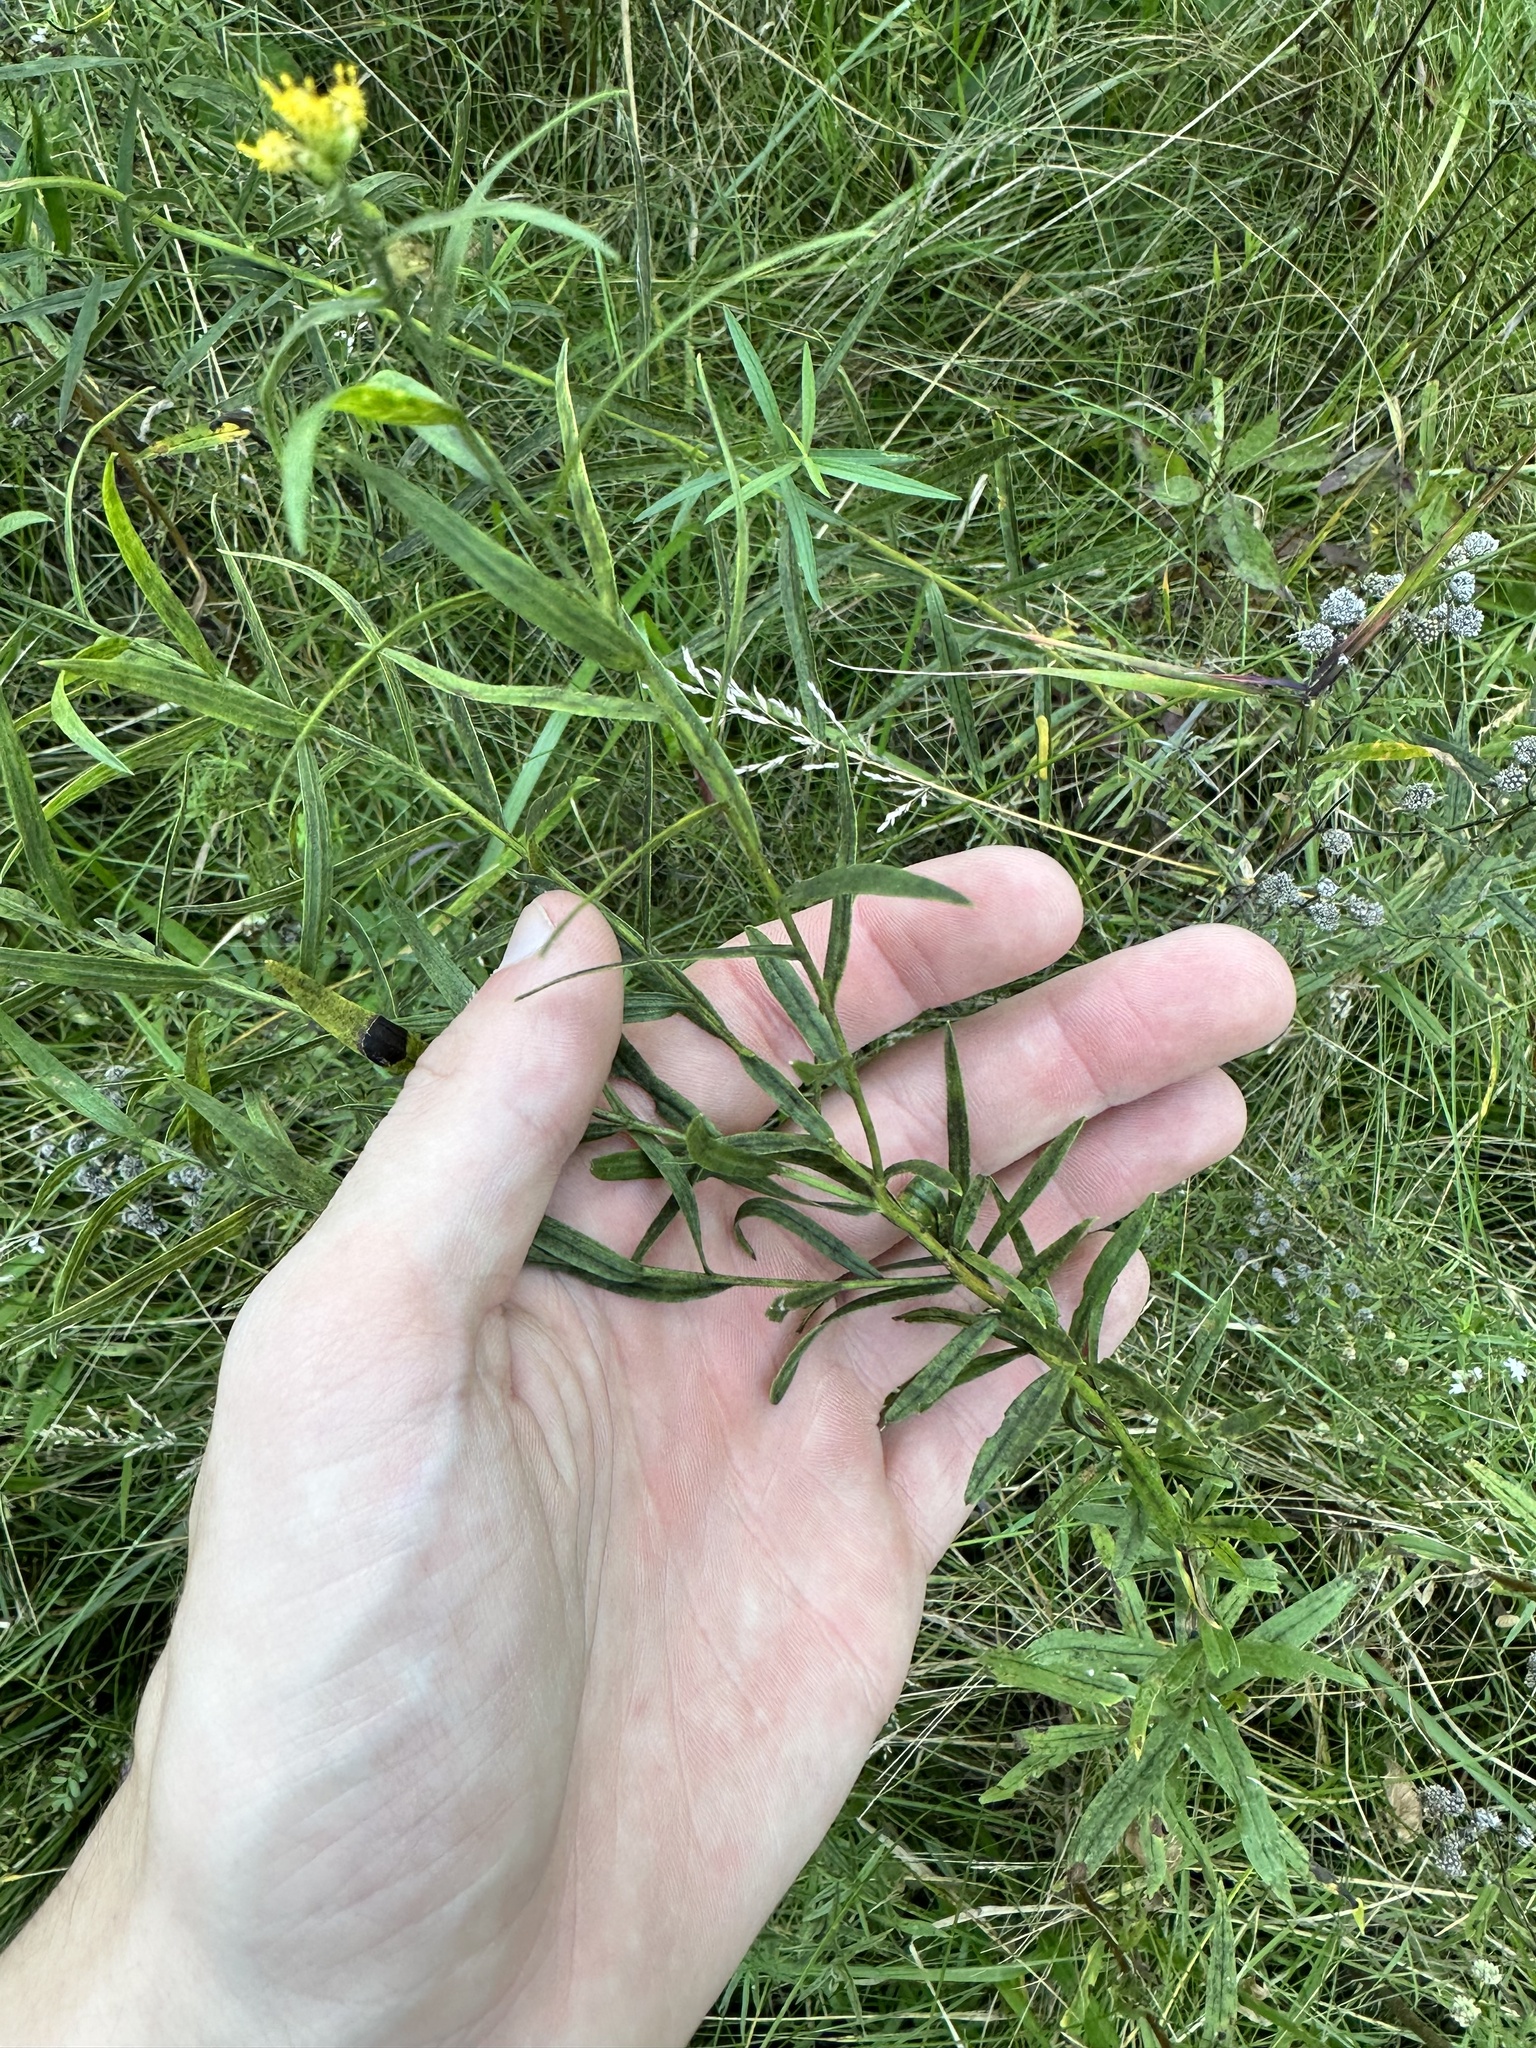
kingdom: Plantae
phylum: Tracheophyta
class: Magnoliopsida
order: Asterales
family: Asteraceae
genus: Euthamia
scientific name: Euthamia graminifolia
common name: Common goldentop
